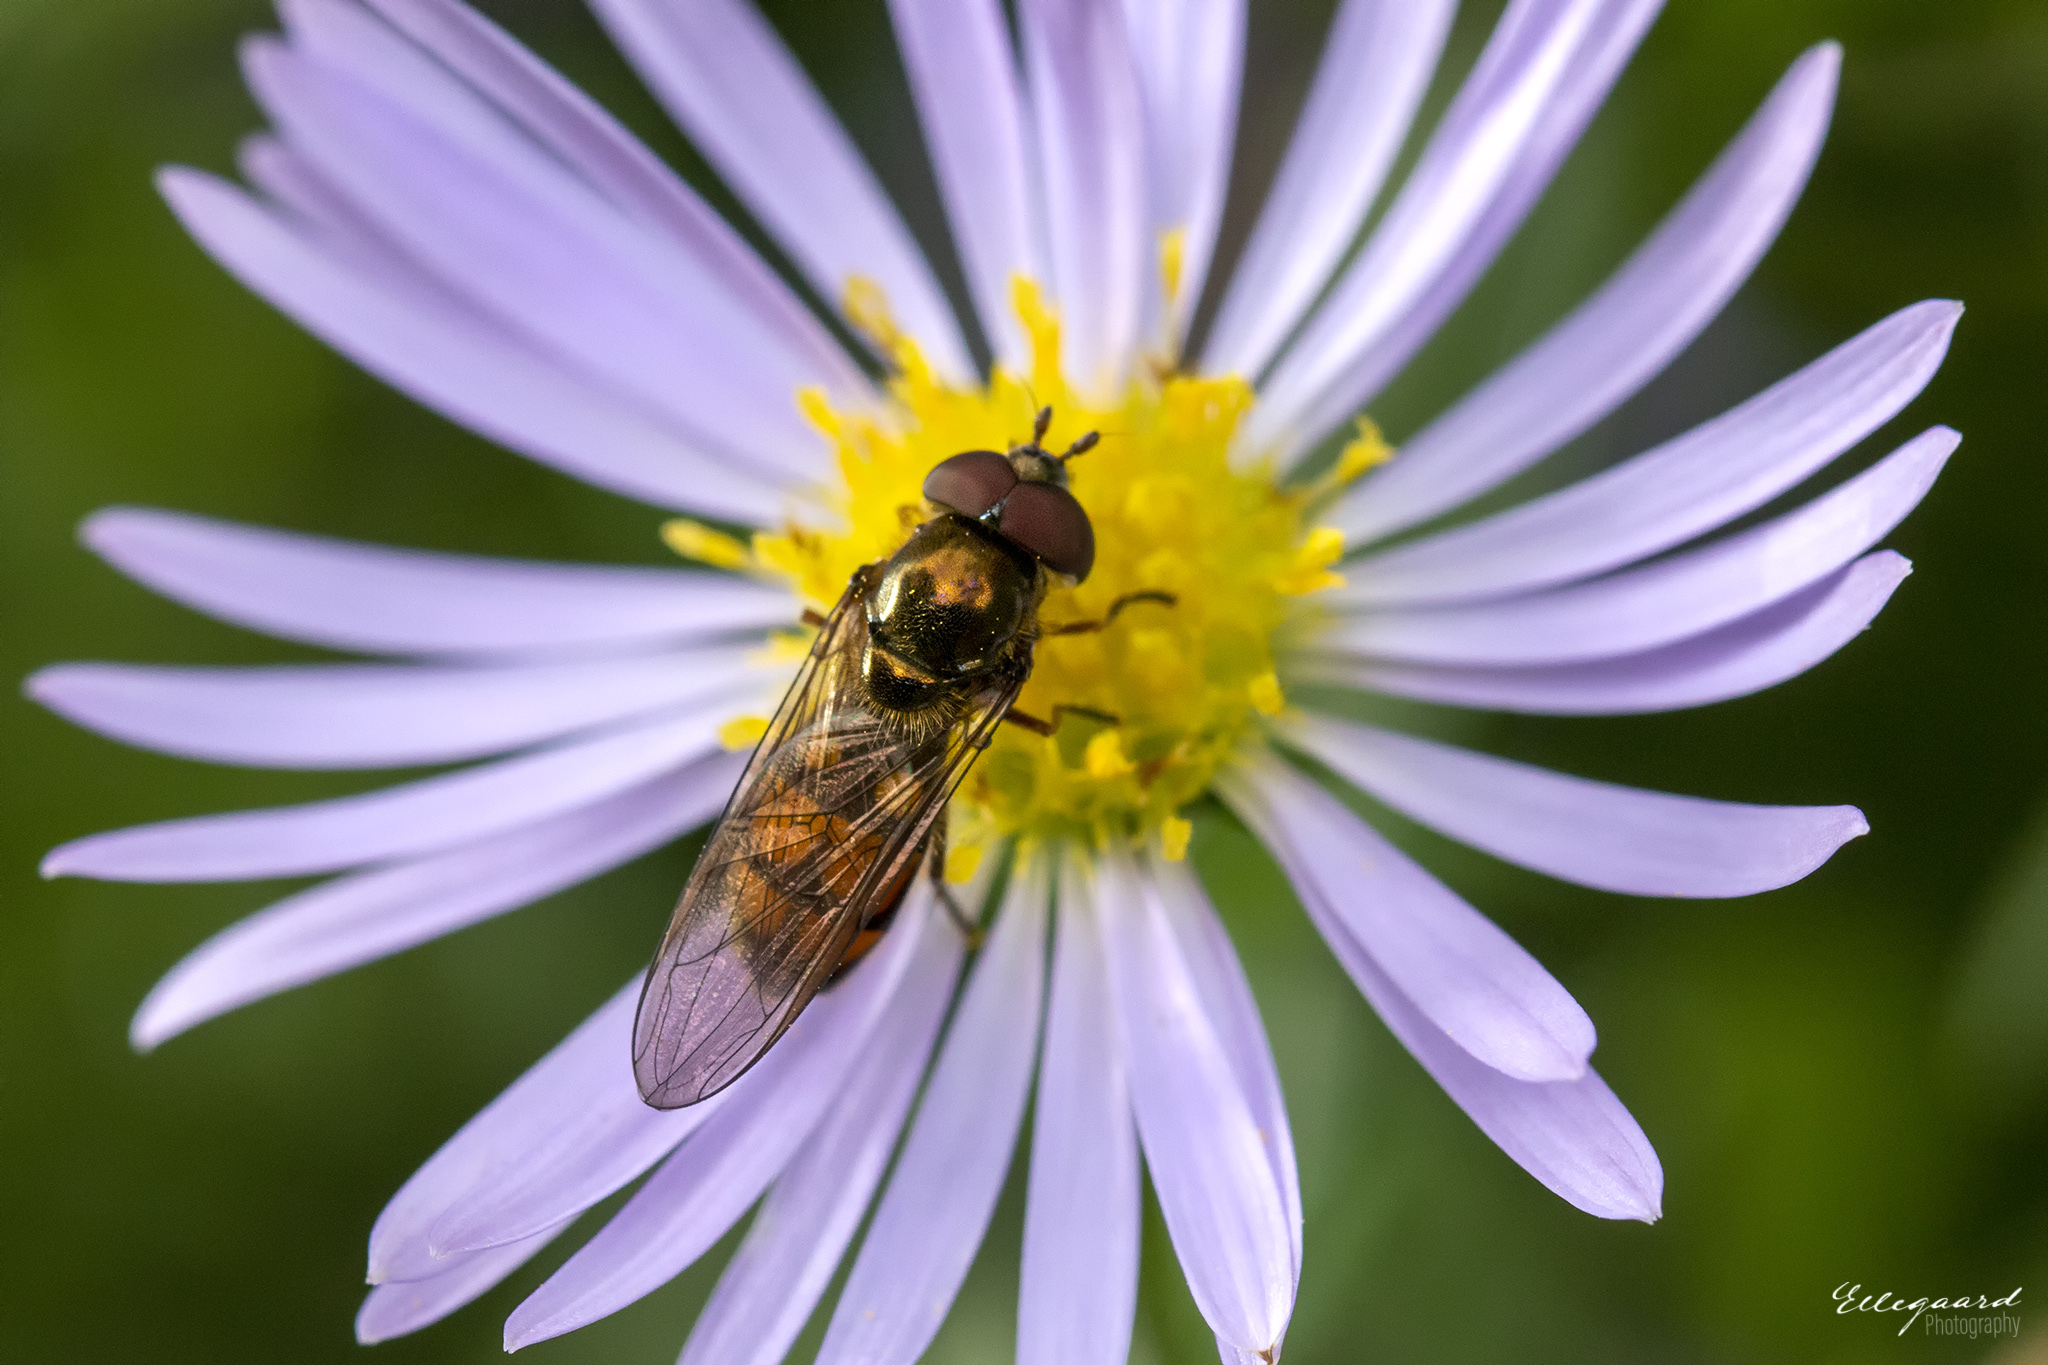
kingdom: Animalia
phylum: Arthropoda
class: Insecta
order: Diptera
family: Syrphidae
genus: Xanthandrus
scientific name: Xanthandrus comtus
